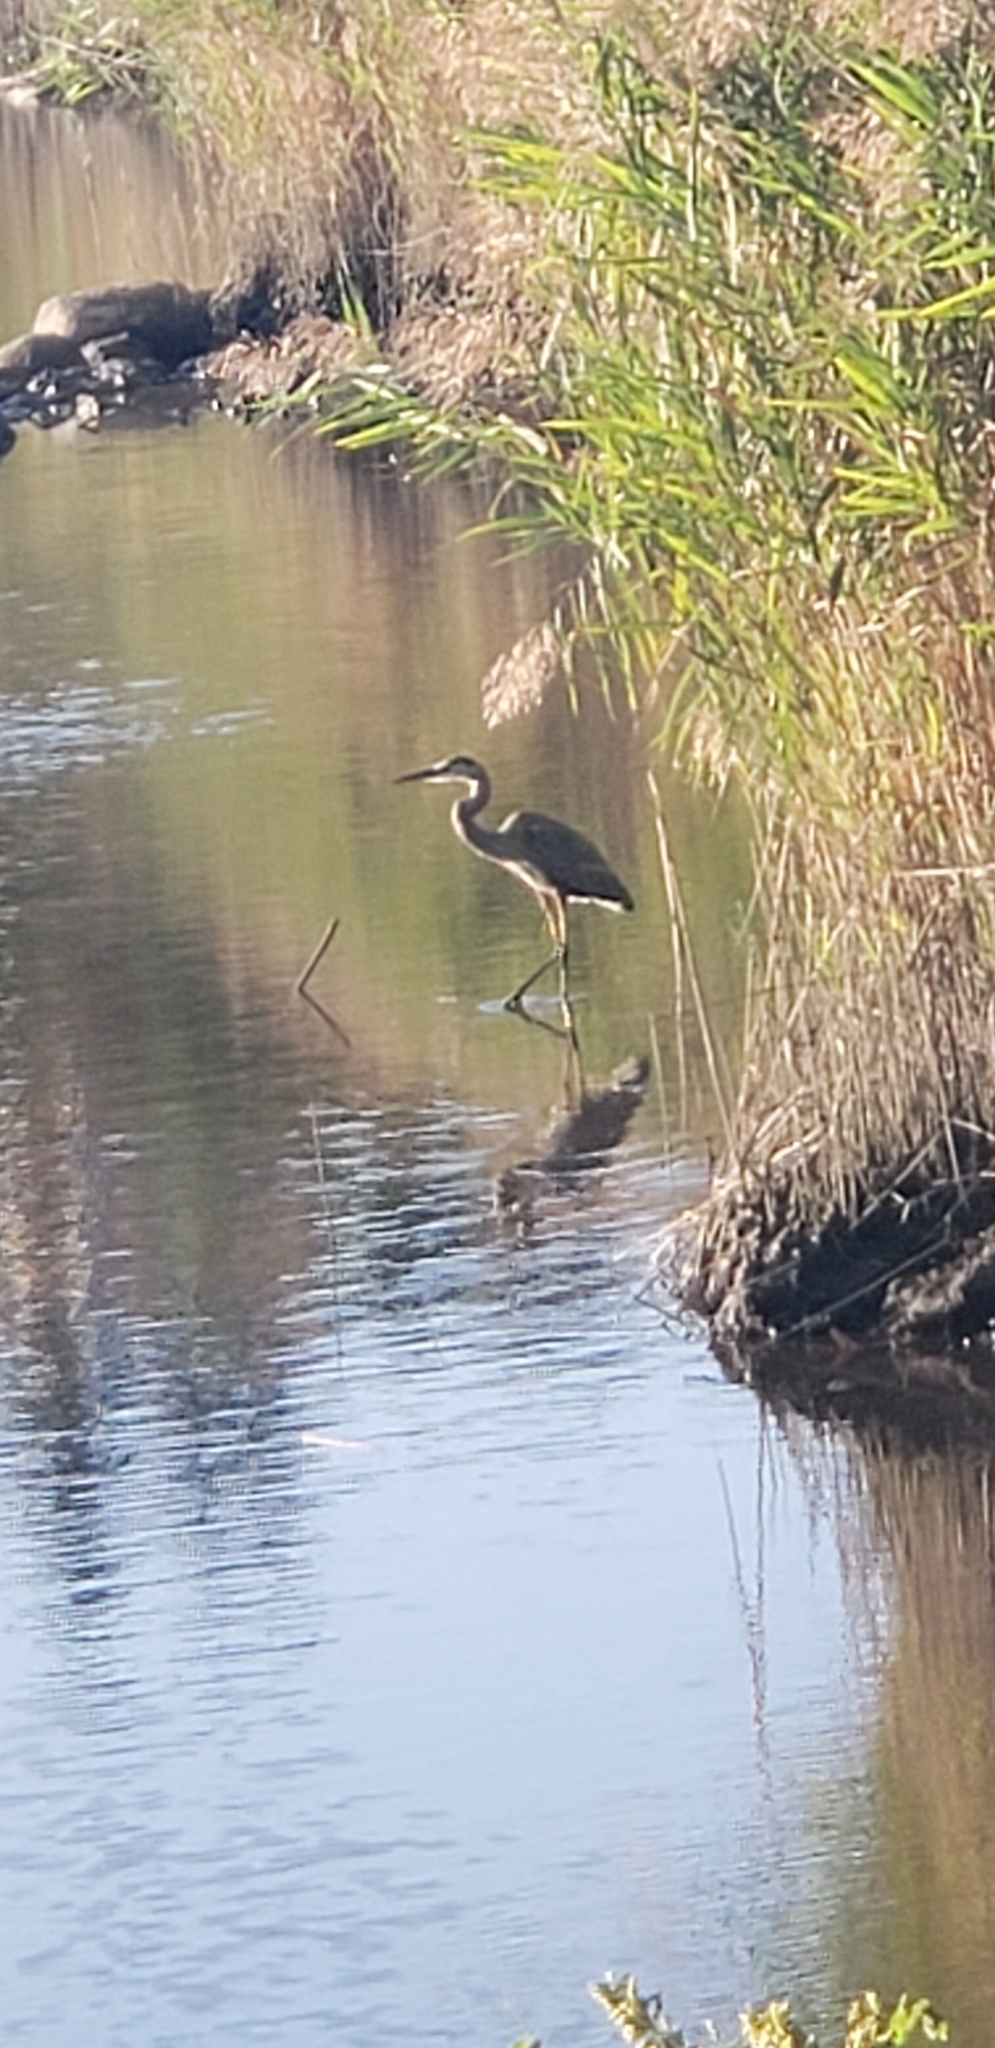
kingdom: Animalia
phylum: Chordata
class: Aves
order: Pelecaniformes
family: Ardeidae
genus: Ardea
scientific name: Ardea herodias
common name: Great blue heron
